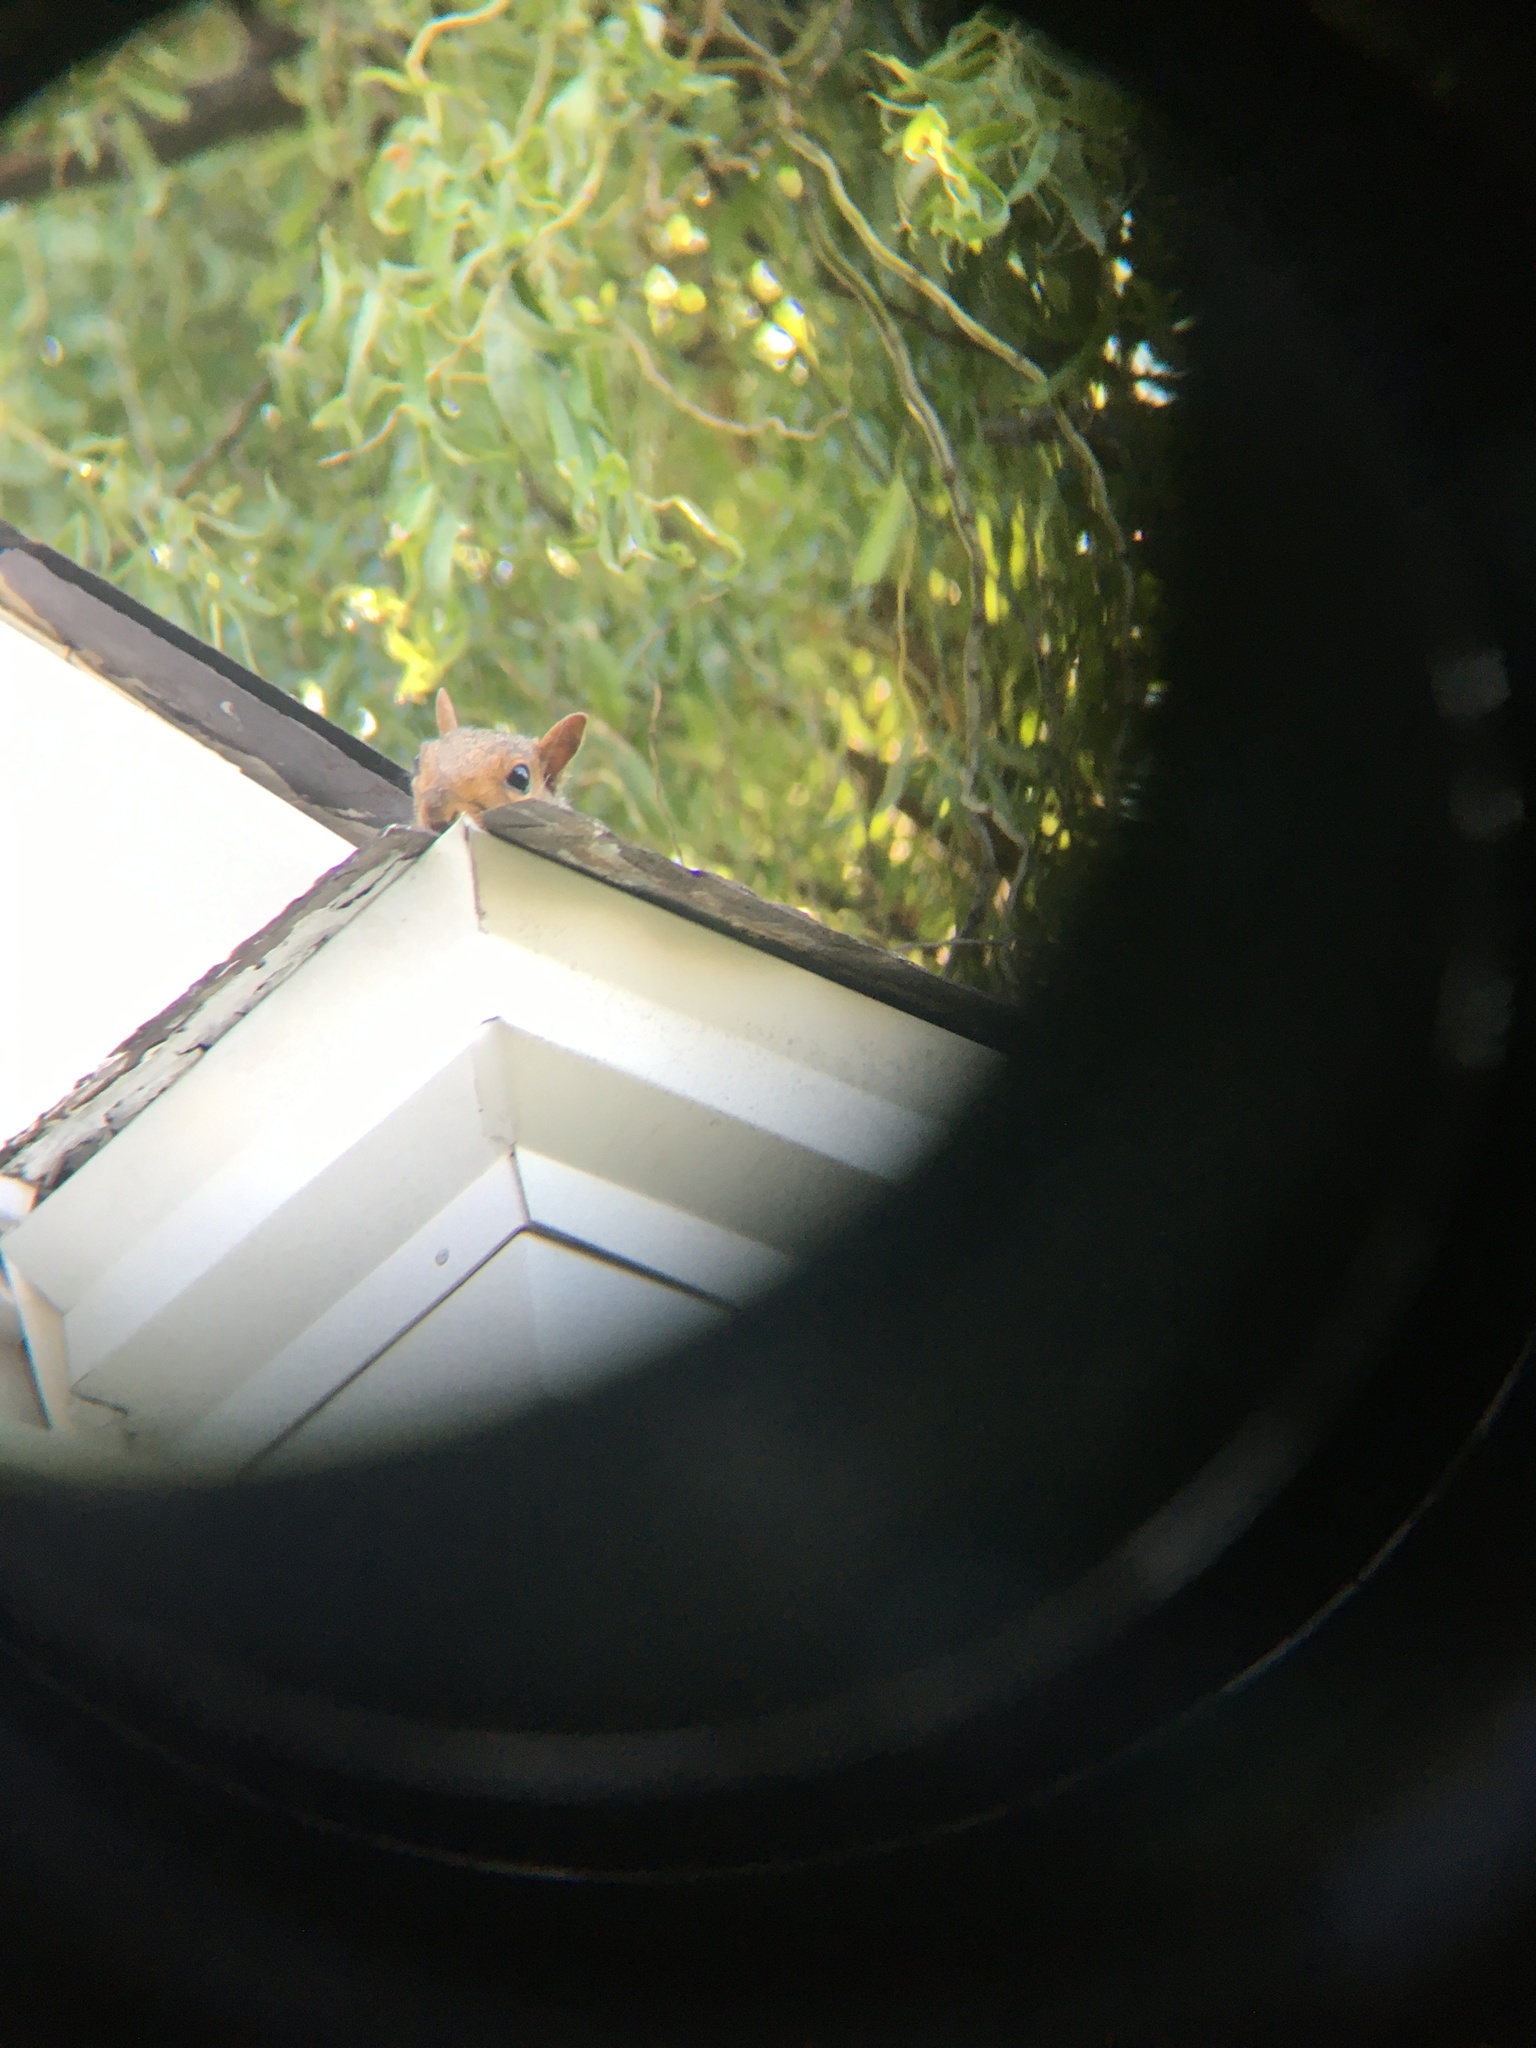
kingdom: Animalia
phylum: Chordata
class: Mammalia
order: Rodentia
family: Sciuridae
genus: Sciurus
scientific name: Sciurus carolinensis
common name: Eastern gray squirrel
